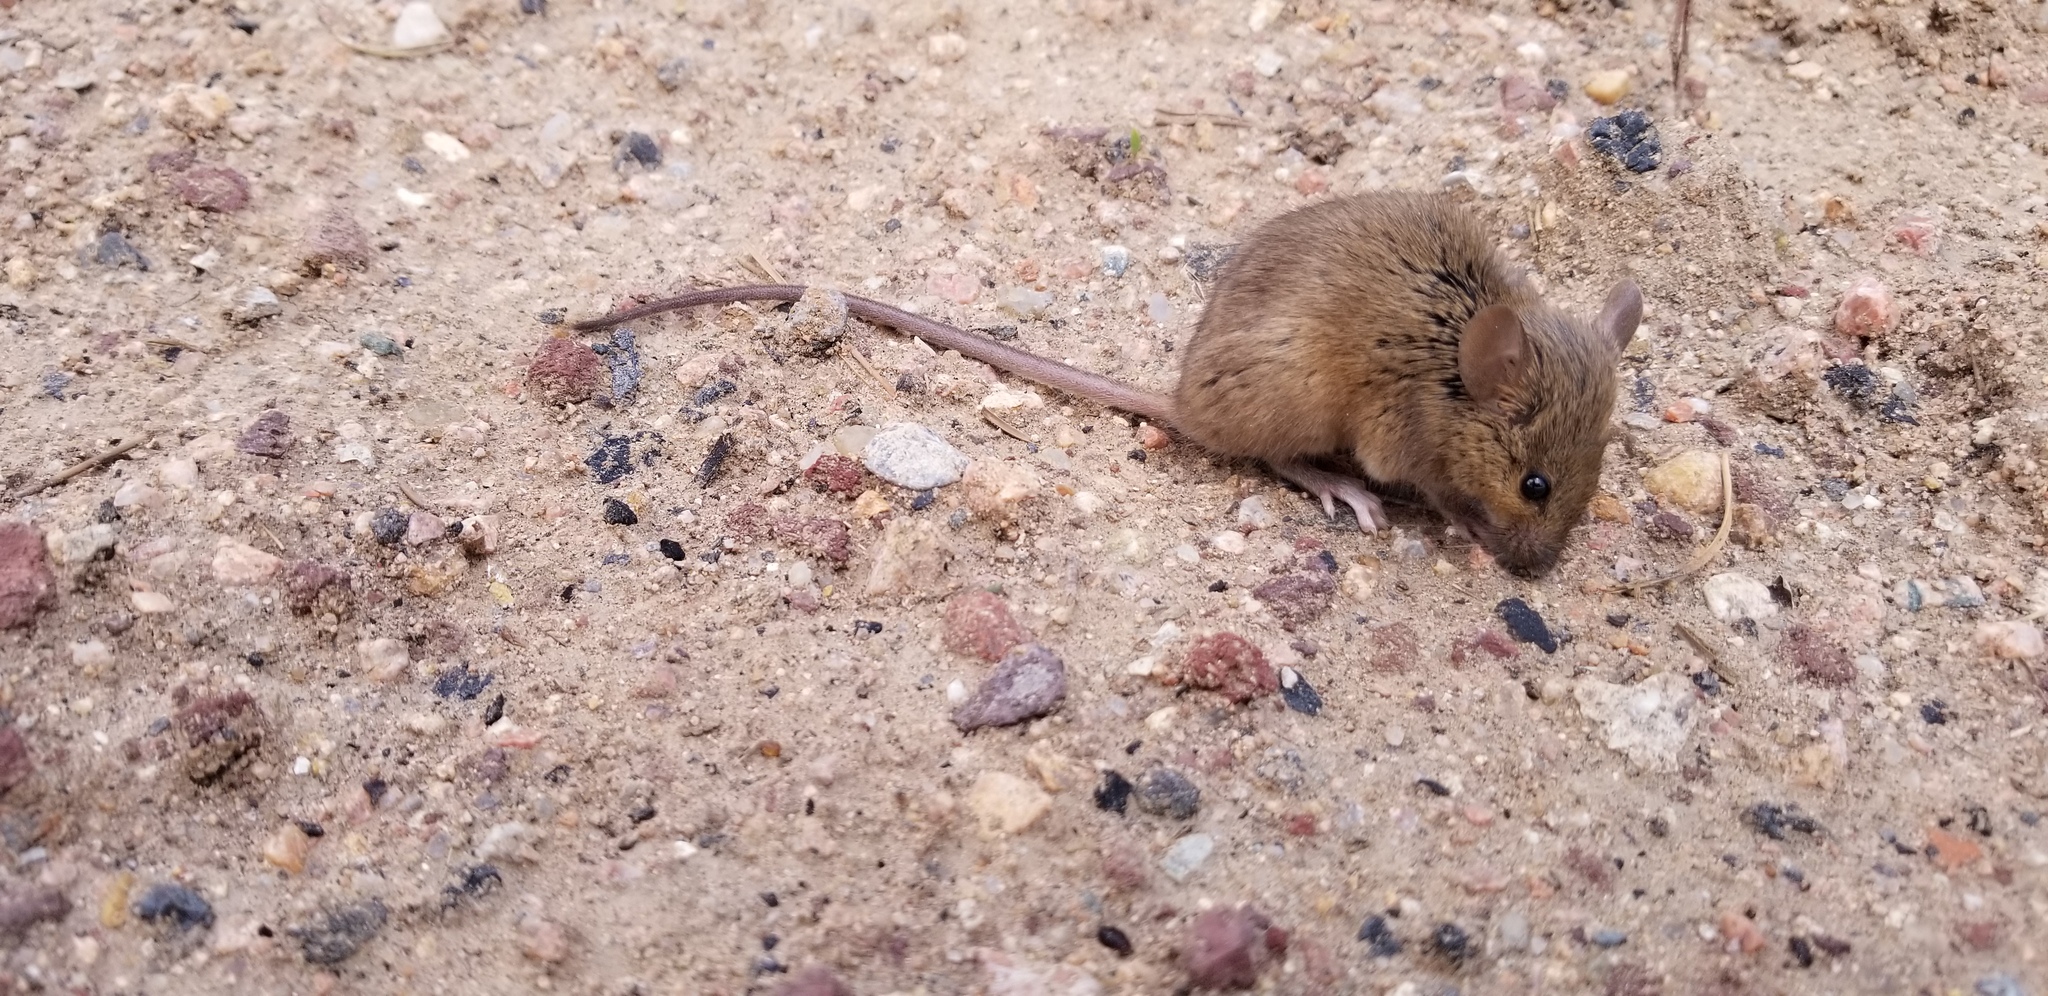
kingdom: Animalia
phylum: Chordata
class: Mammalia
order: Rodentia
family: Muridae
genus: Mus
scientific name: Mus musculus
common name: House mouse
